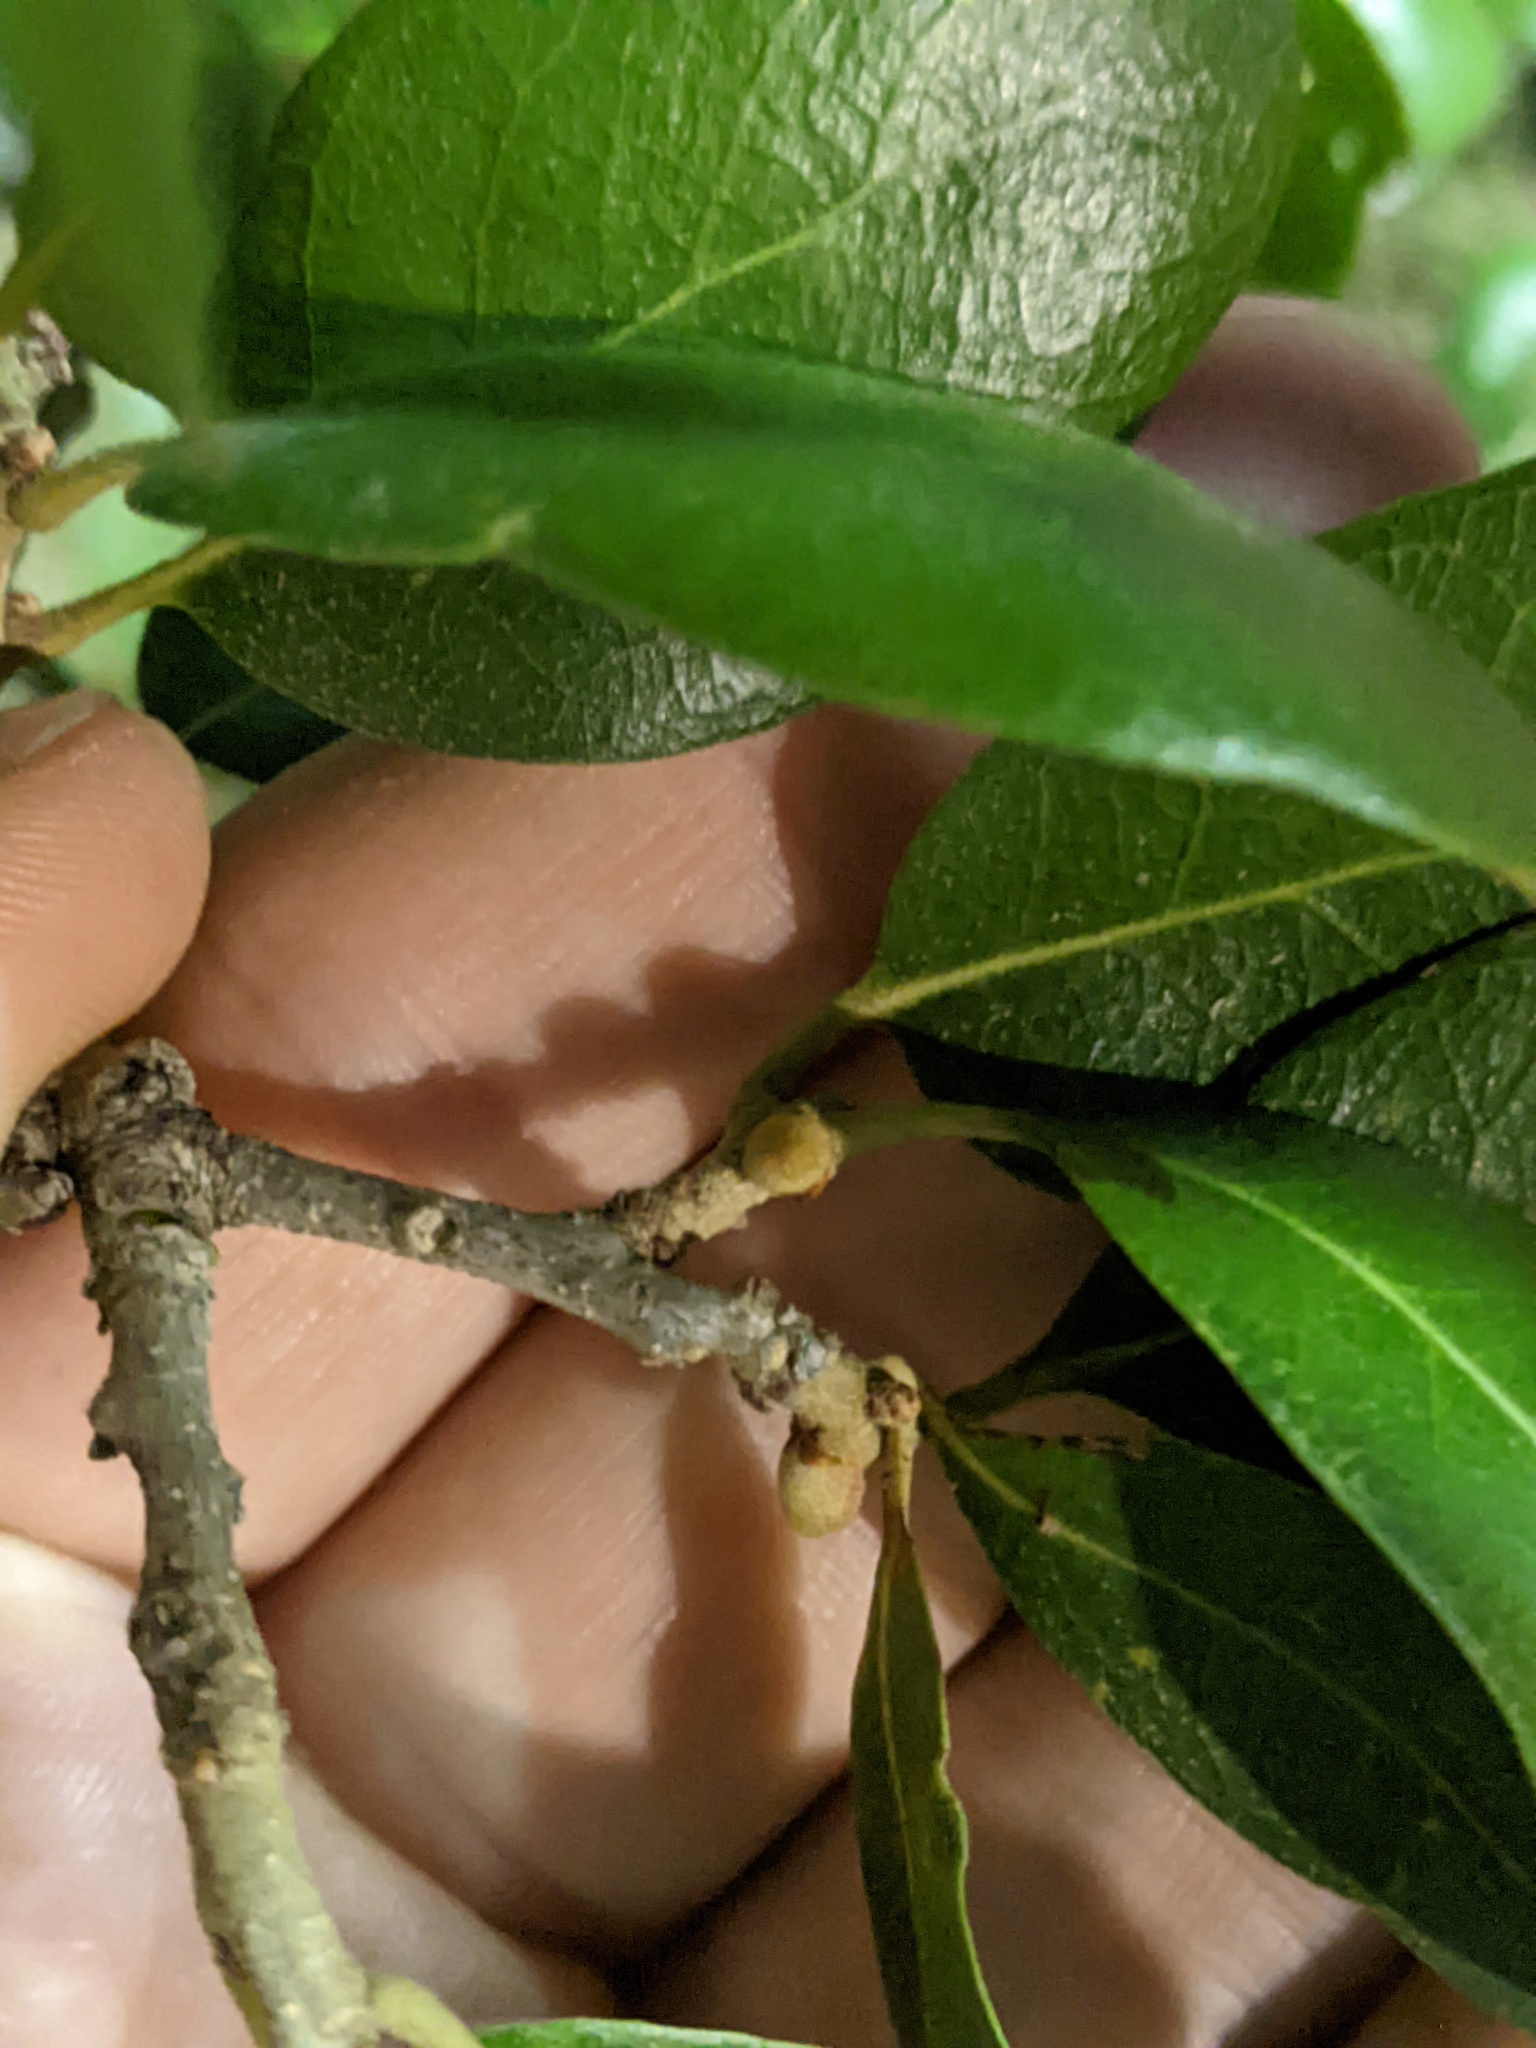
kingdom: Animalia
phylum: Arthropoda
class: Insecta
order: Hymenoptera
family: Cynipidae
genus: Disholcaspis
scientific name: Disholcaspis
